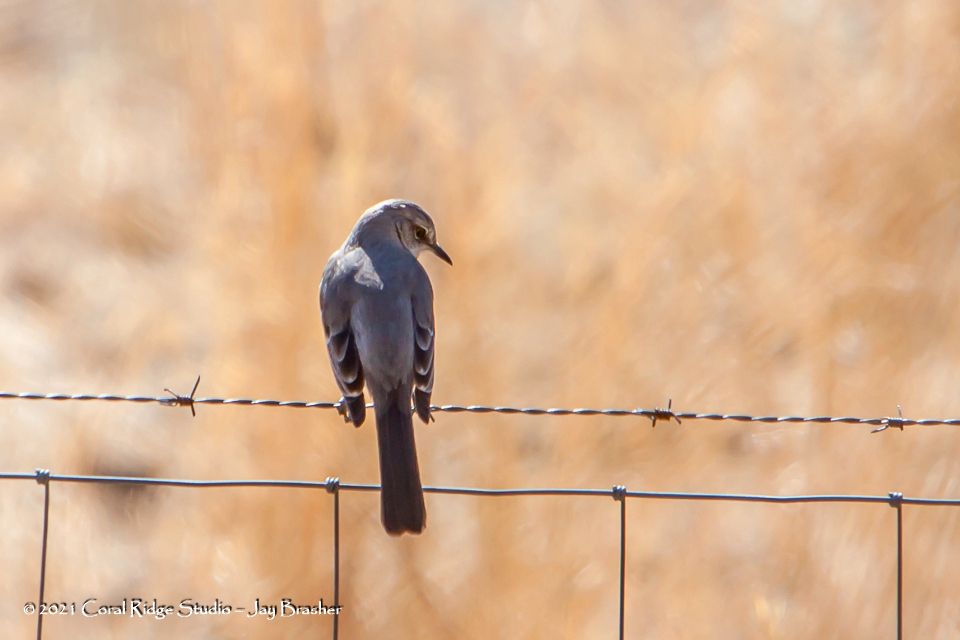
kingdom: Animalia
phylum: Chordata
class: Aves
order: Passeriformes
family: Mimidae
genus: Mimus
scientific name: Mimus polyglottos
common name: Northern mockingbird
